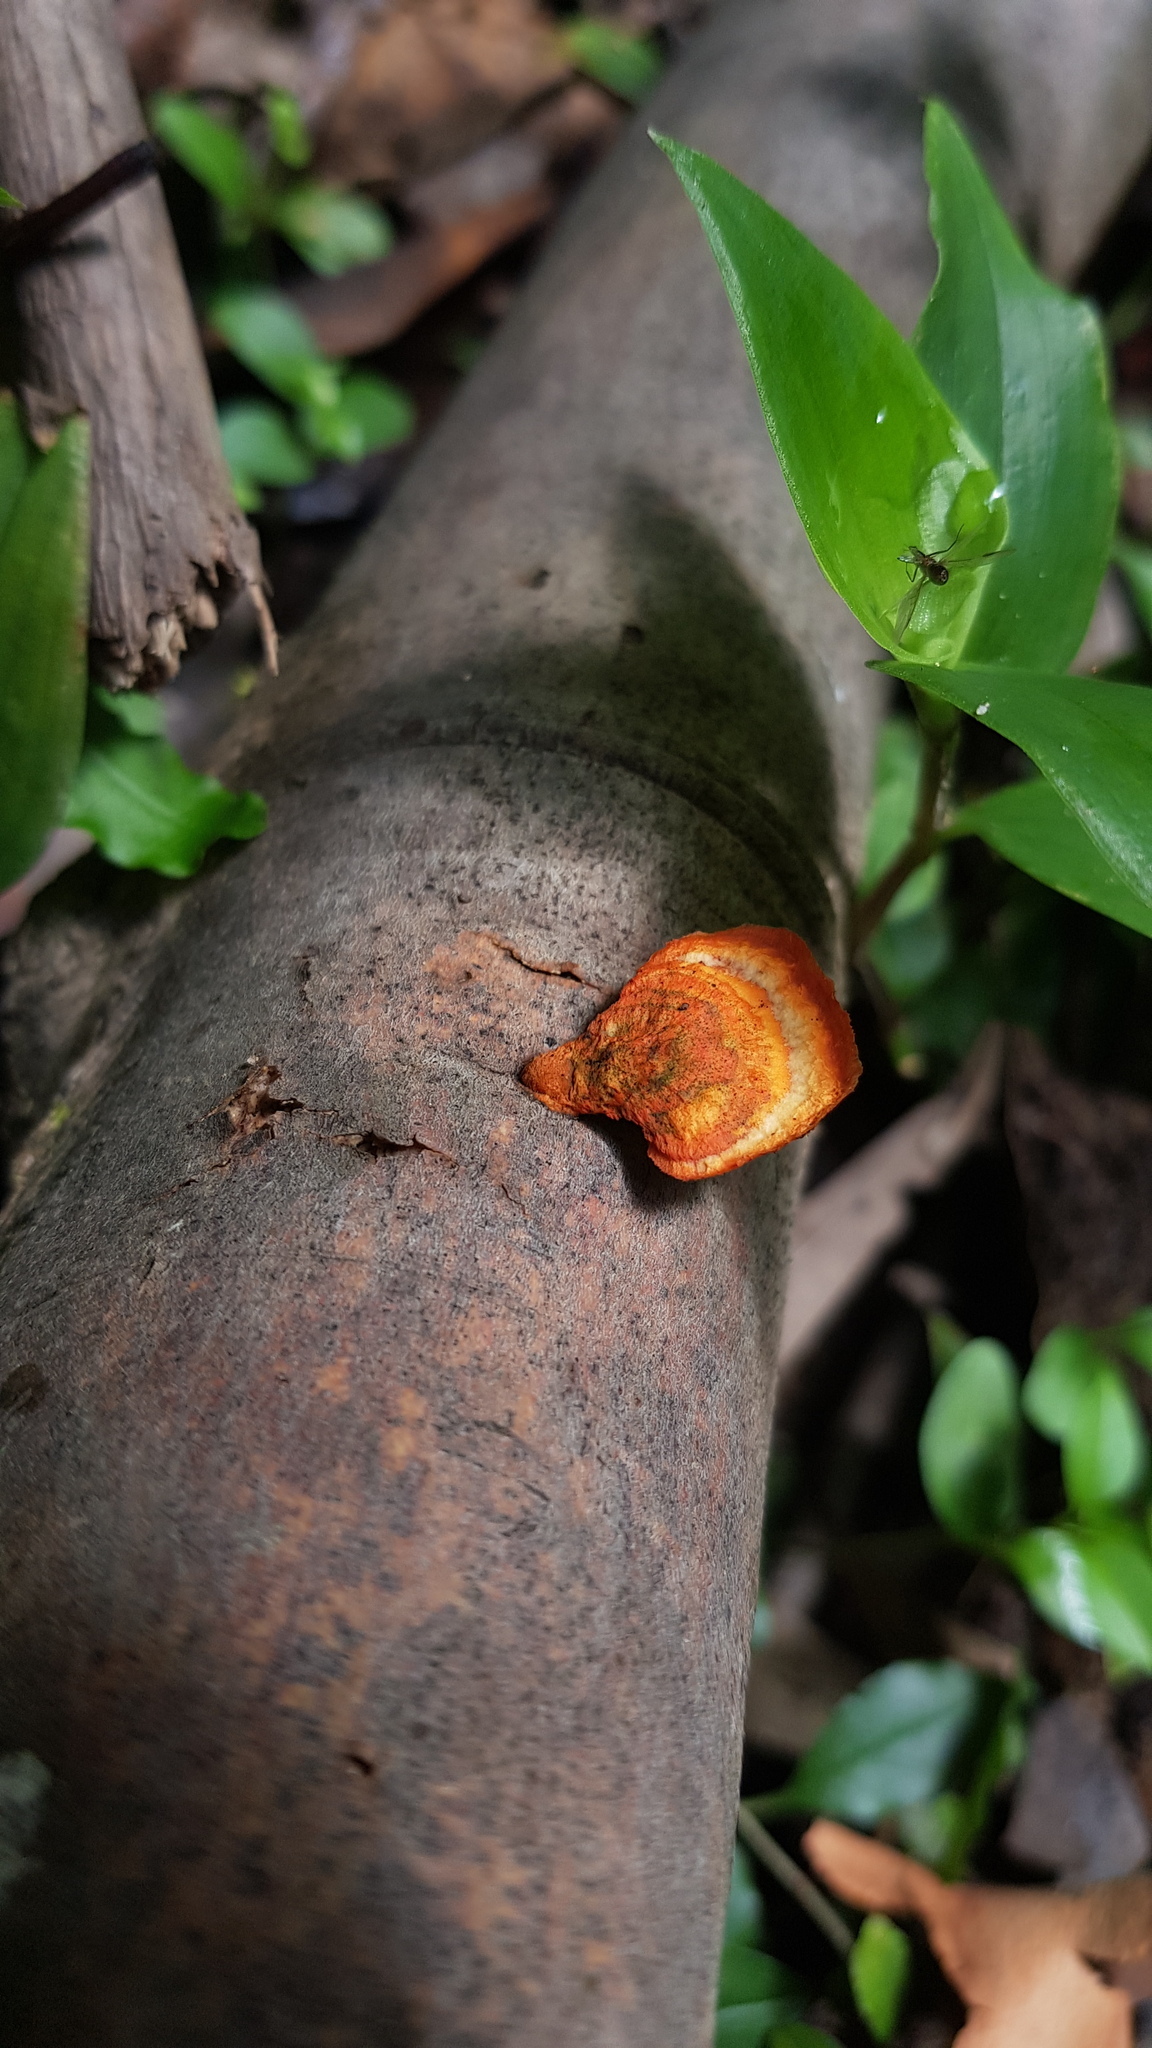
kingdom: Fungi
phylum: Basidiomycota
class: Agaricomycetes
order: Polyporales
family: Polyporaceae
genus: Trametes
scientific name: Trametes coccinea
